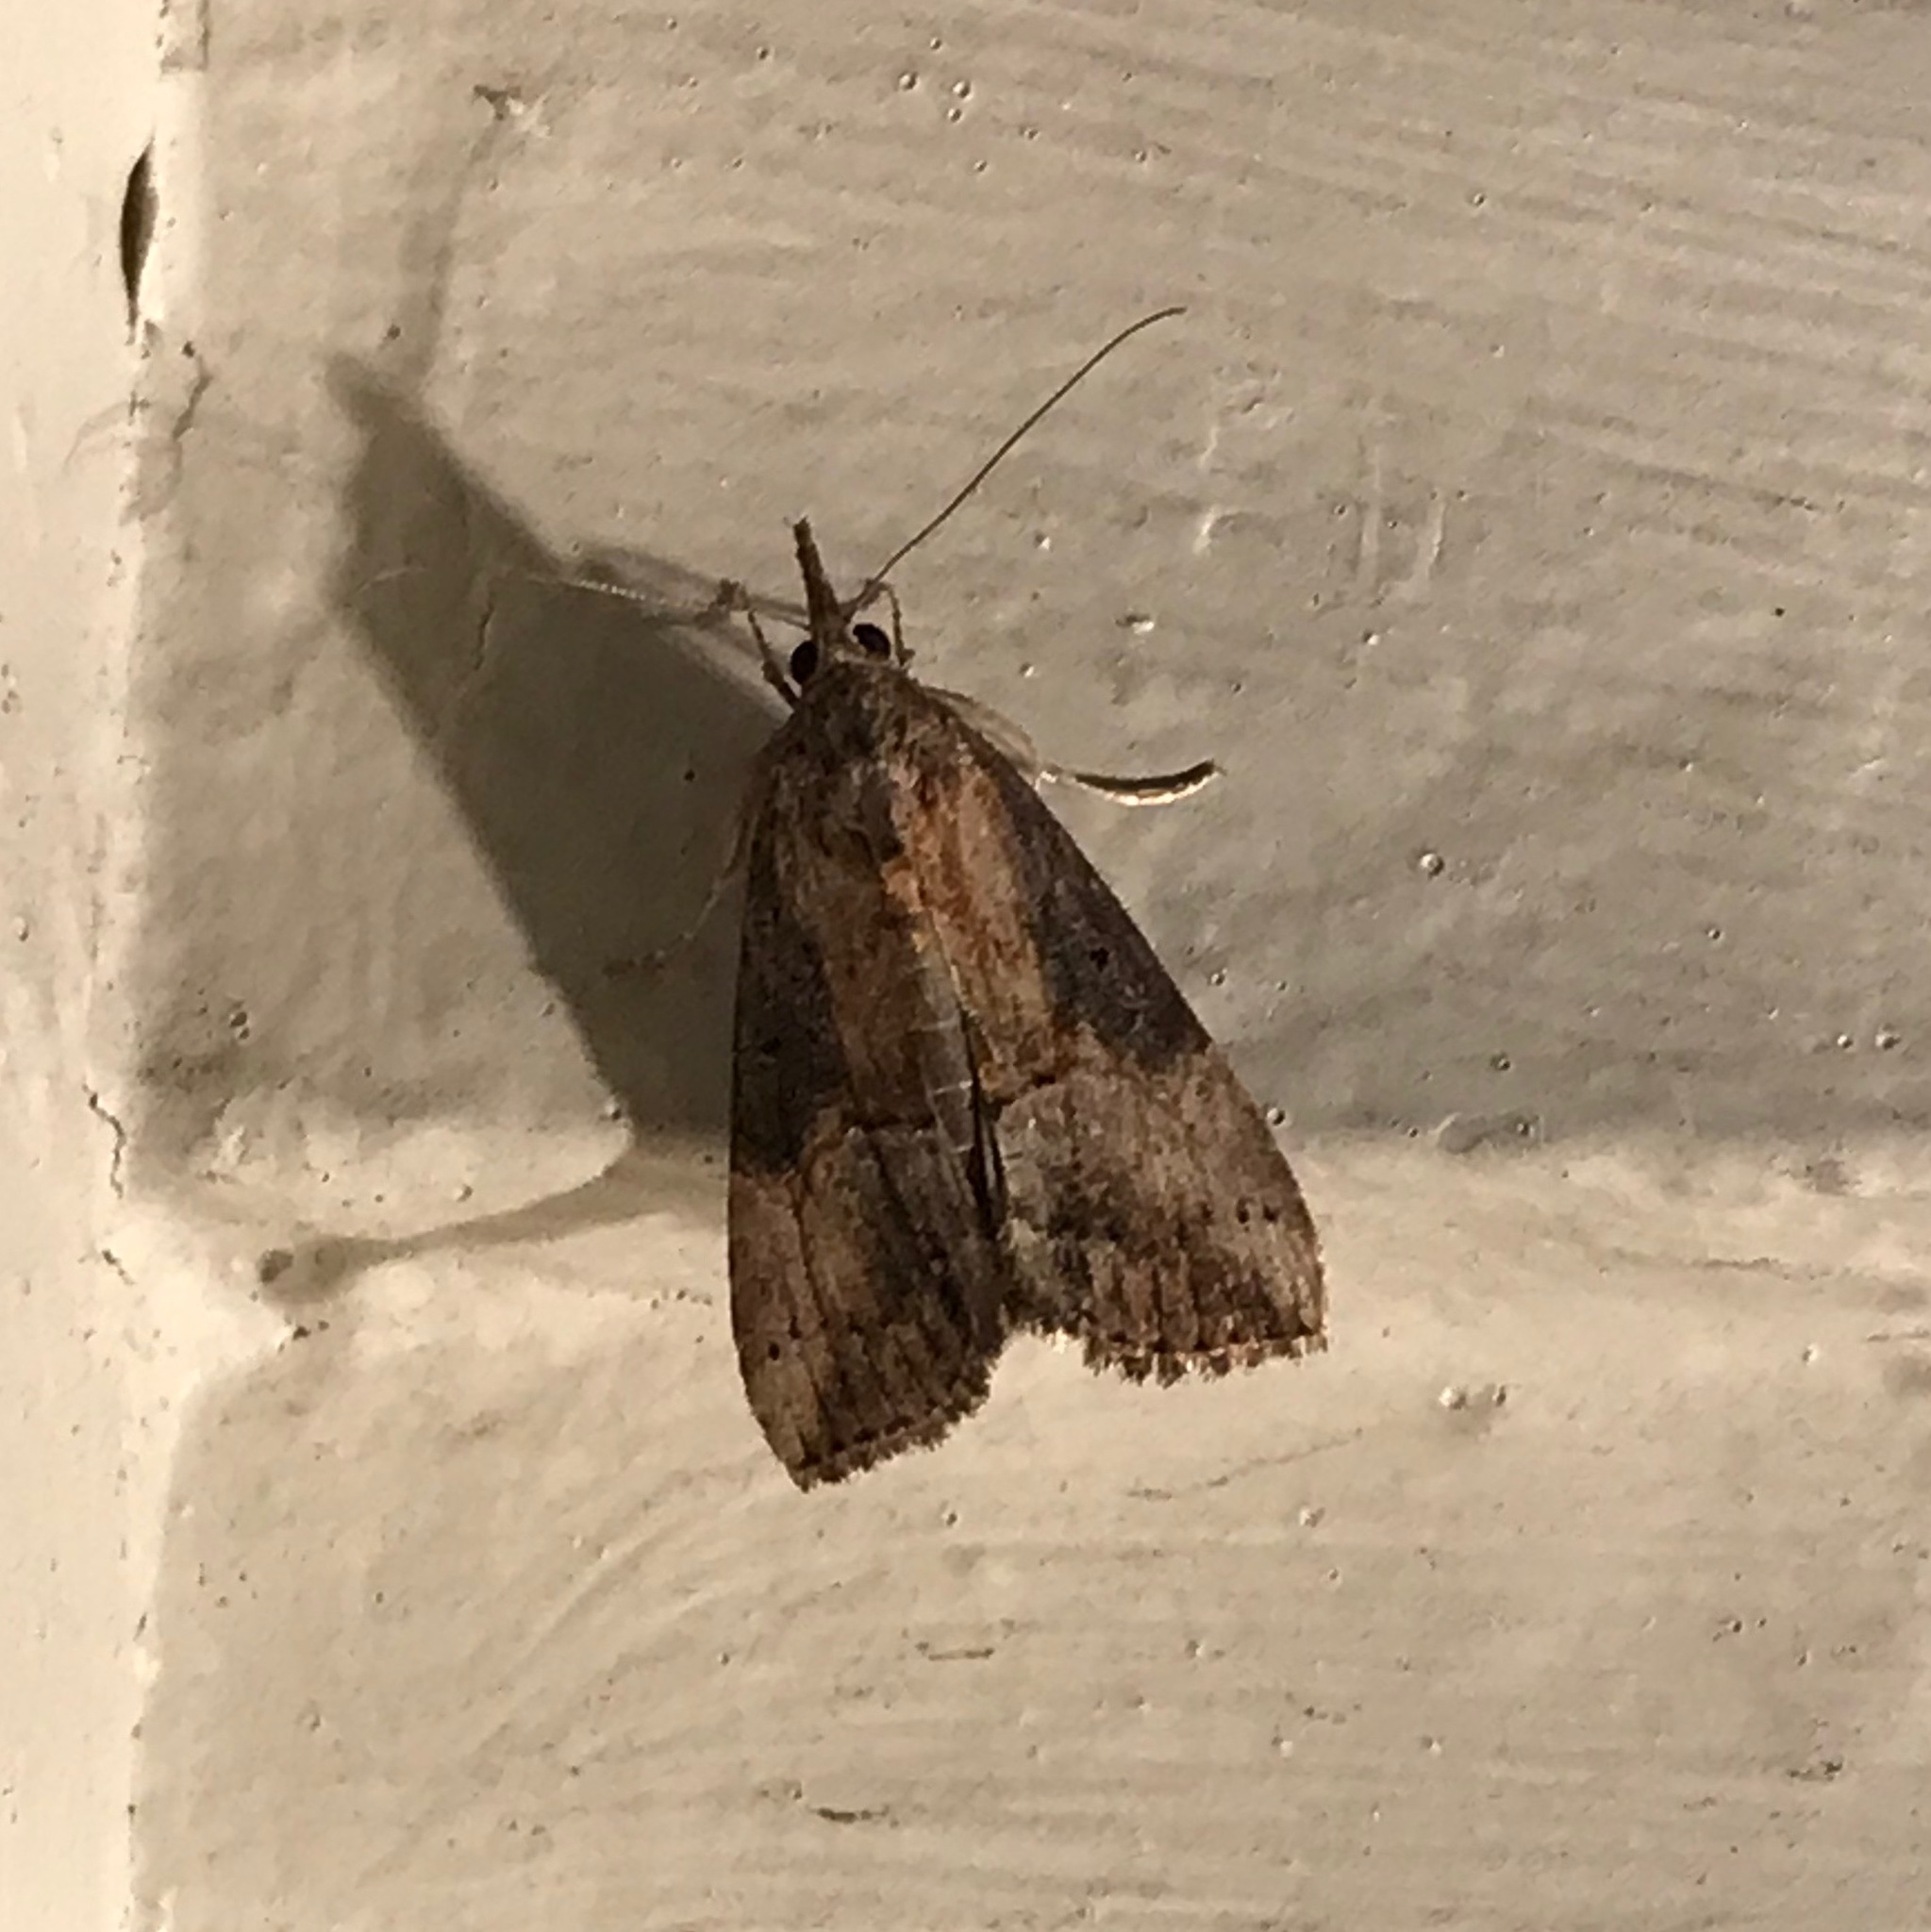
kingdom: Animalia
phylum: Arthropoda
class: Insecta
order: Lepidoptera
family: Erebidae
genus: Hypena
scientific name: Hypena scabra
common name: Green cloverworm
